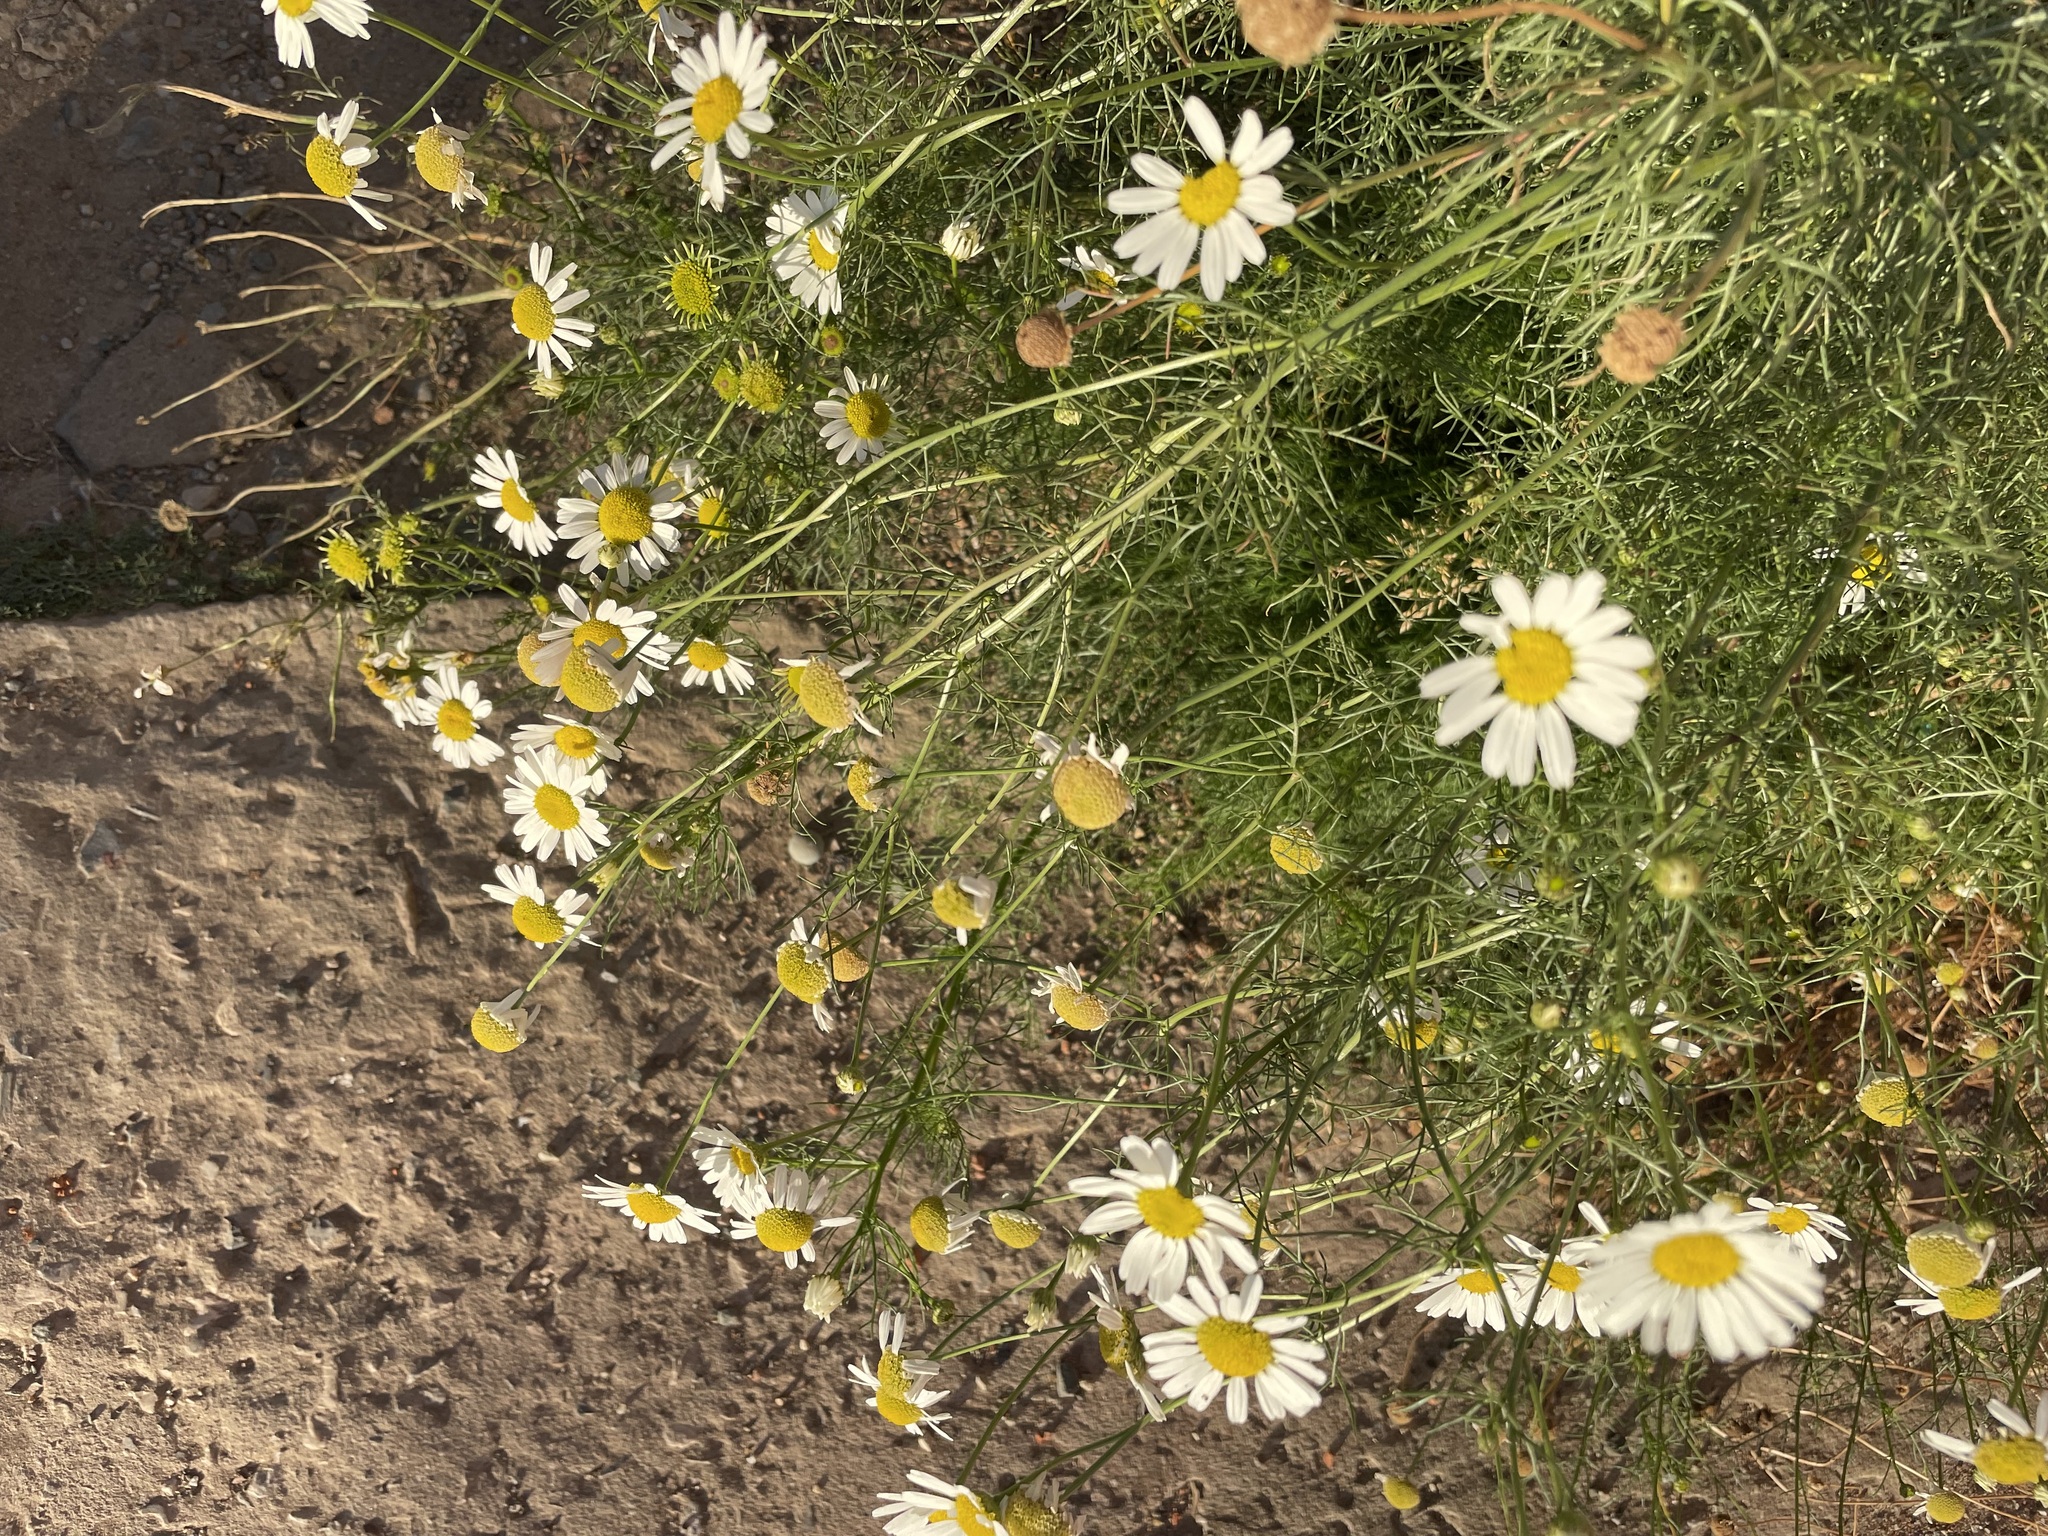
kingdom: Plantae
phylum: Tracheophyta
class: Magnoliopsida
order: Asterales
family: Asteraceae
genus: Tripleurospermum
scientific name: Tripleurospermum inodorum
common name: Scentless mayweed
